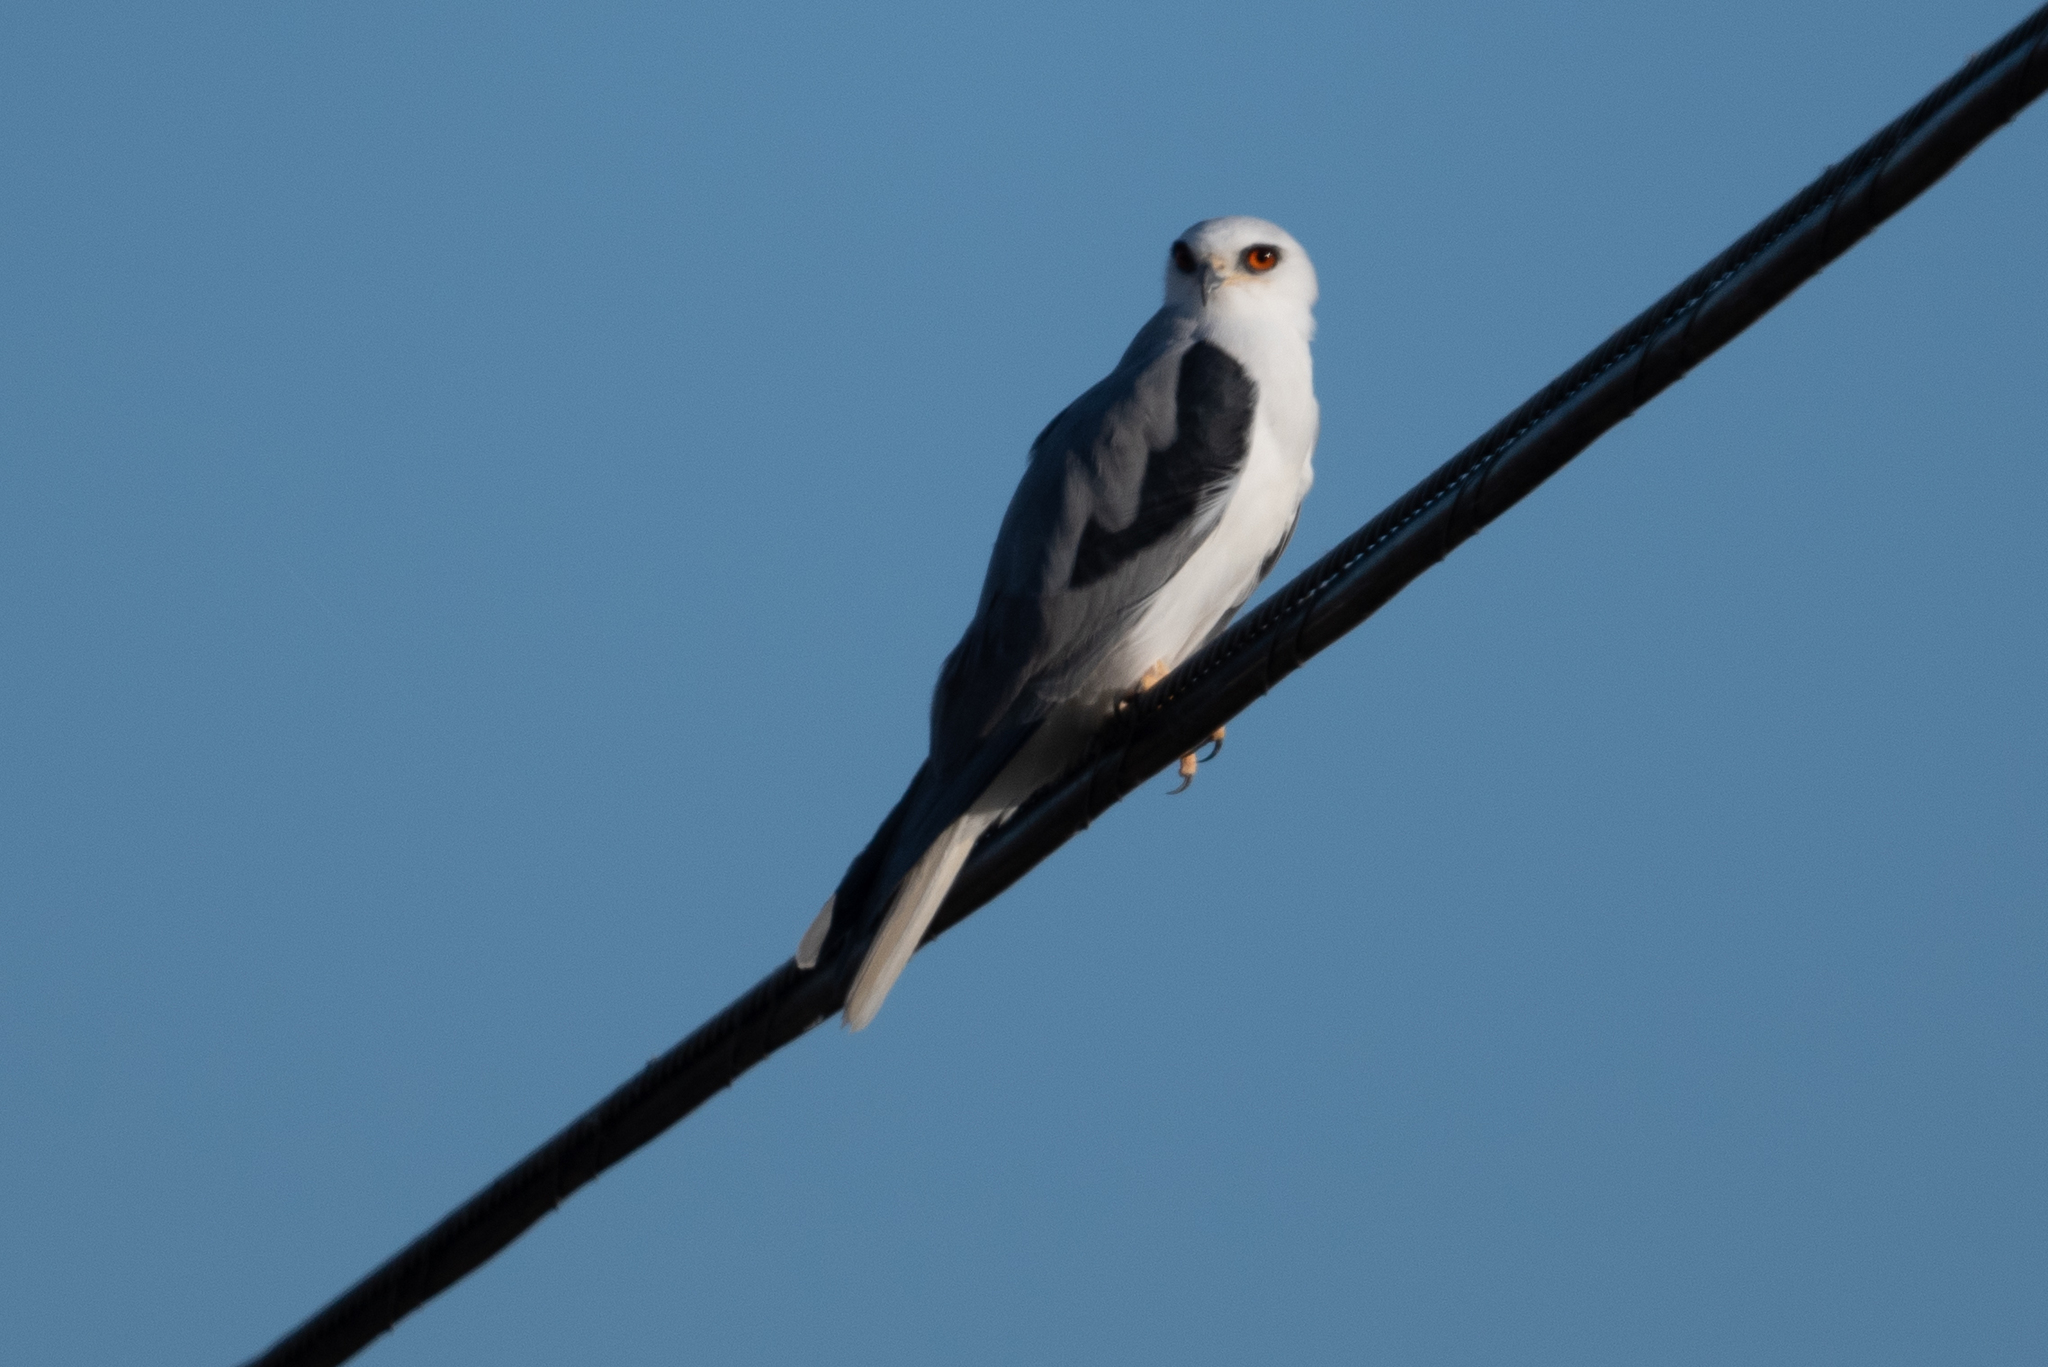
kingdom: Animalia
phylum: Chordata
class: Aves
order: Accipitriformes
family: Accipitridae
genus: Elanus
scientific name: Elanus leucurus
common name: White-tailed kite
